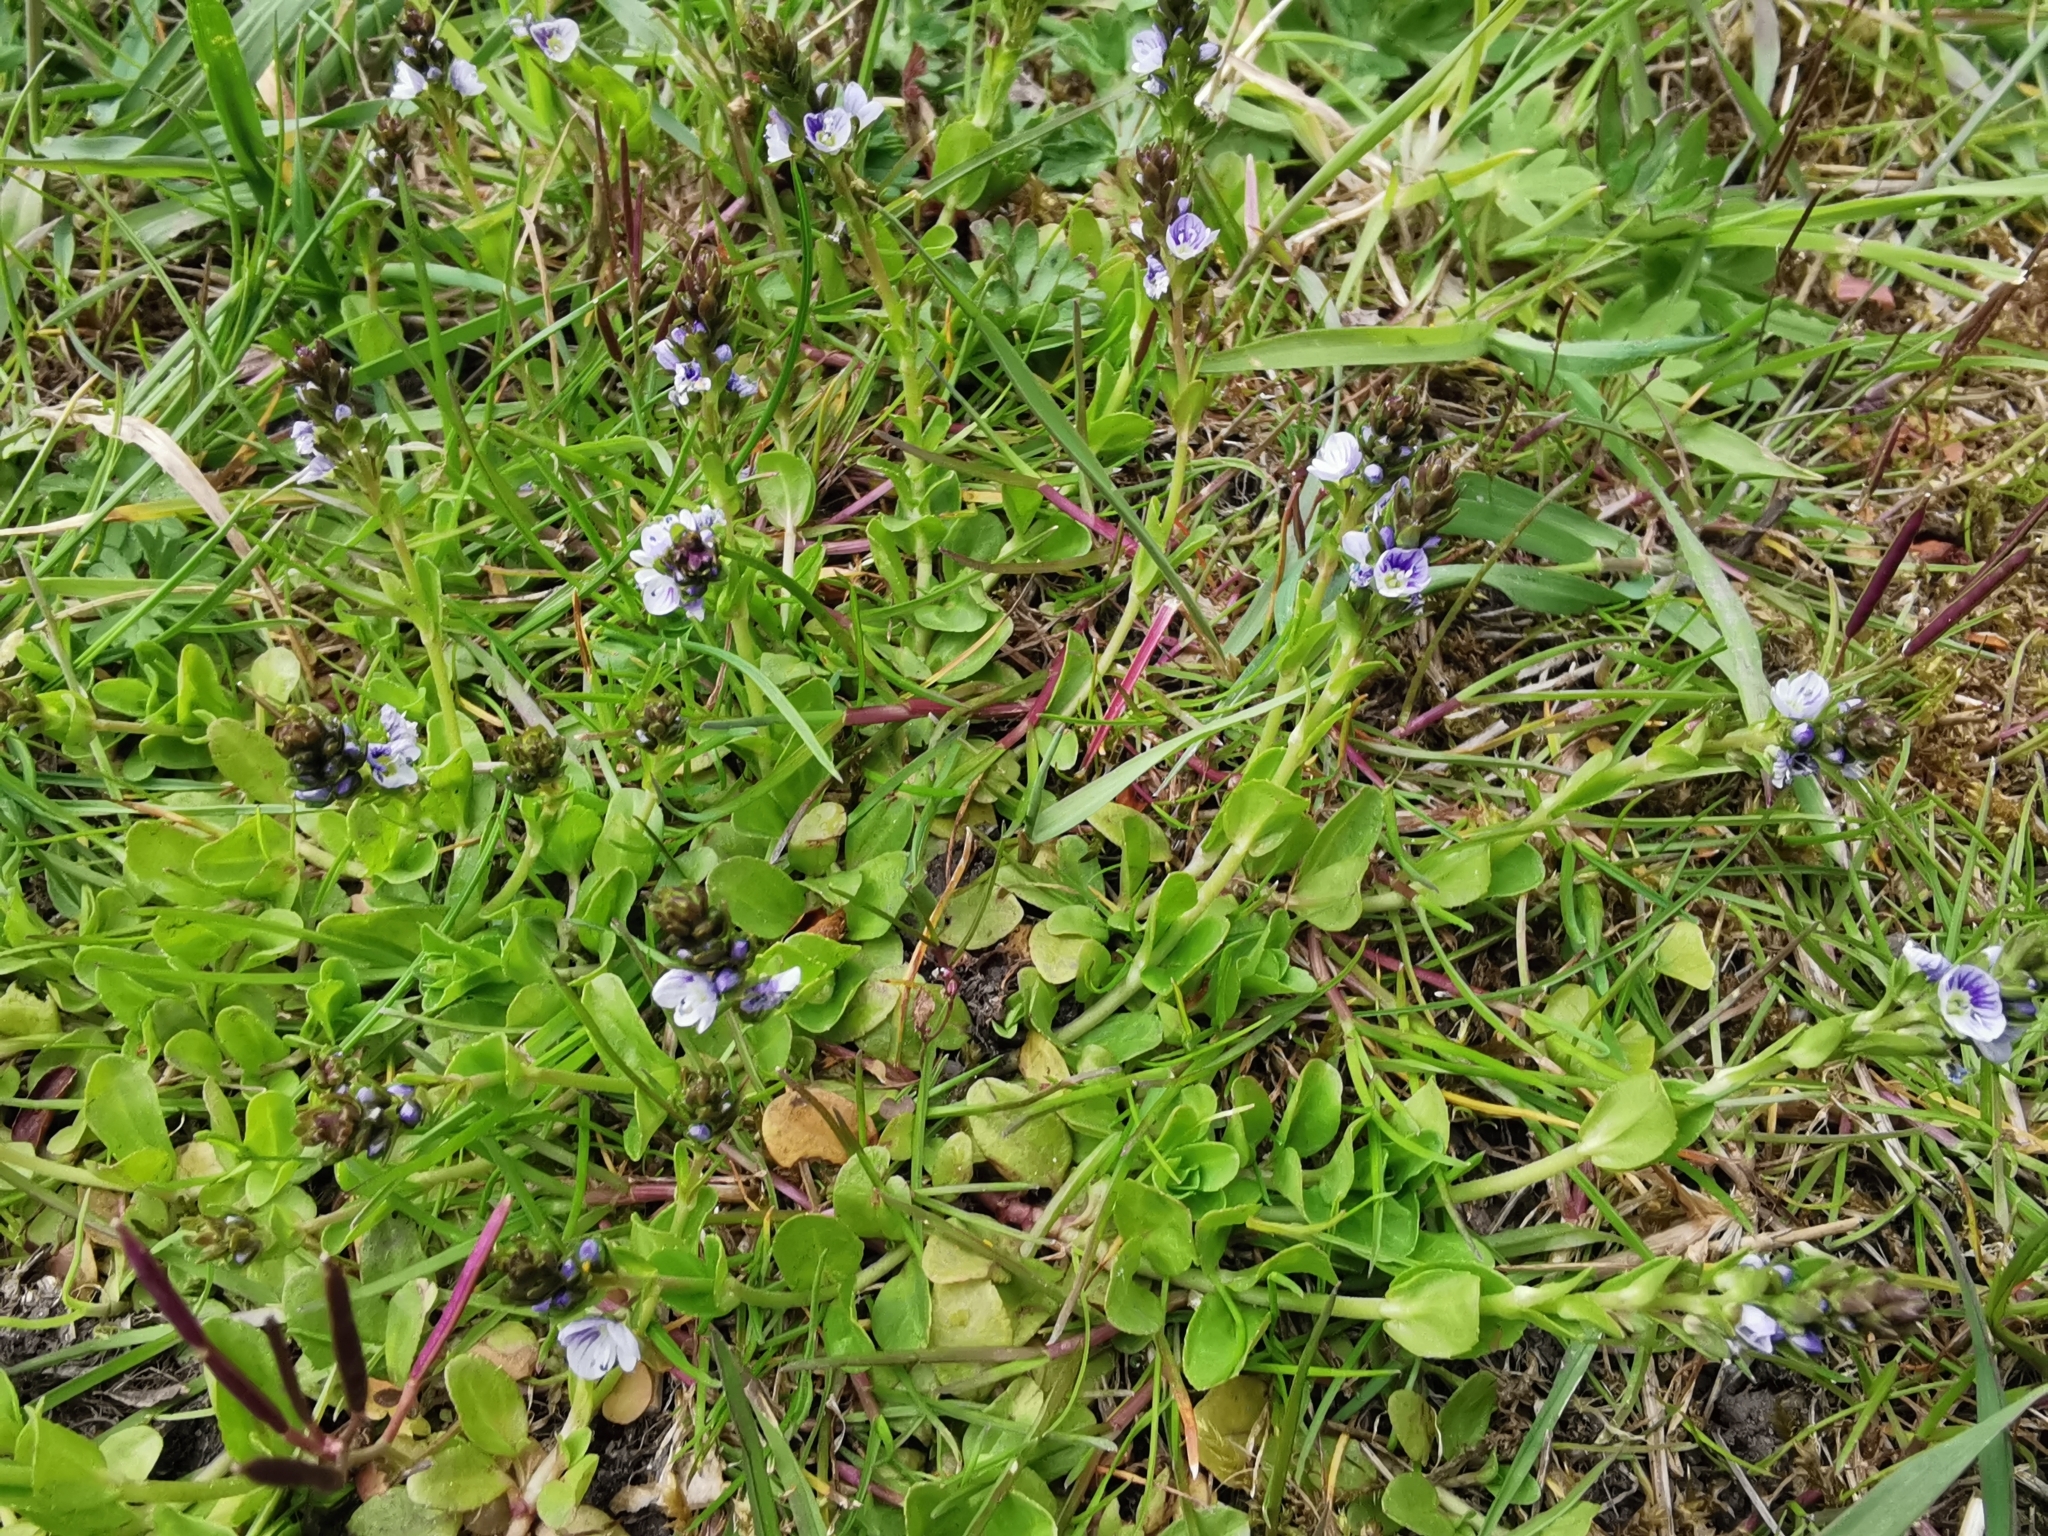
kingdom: Plantae
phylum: Tracheophyta
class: Magnoliopsida
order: Lamiales
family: Plantaginaceae
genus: Veronica
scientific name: Veronica serpyllifolia
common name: Thyme-leaved speedwell
